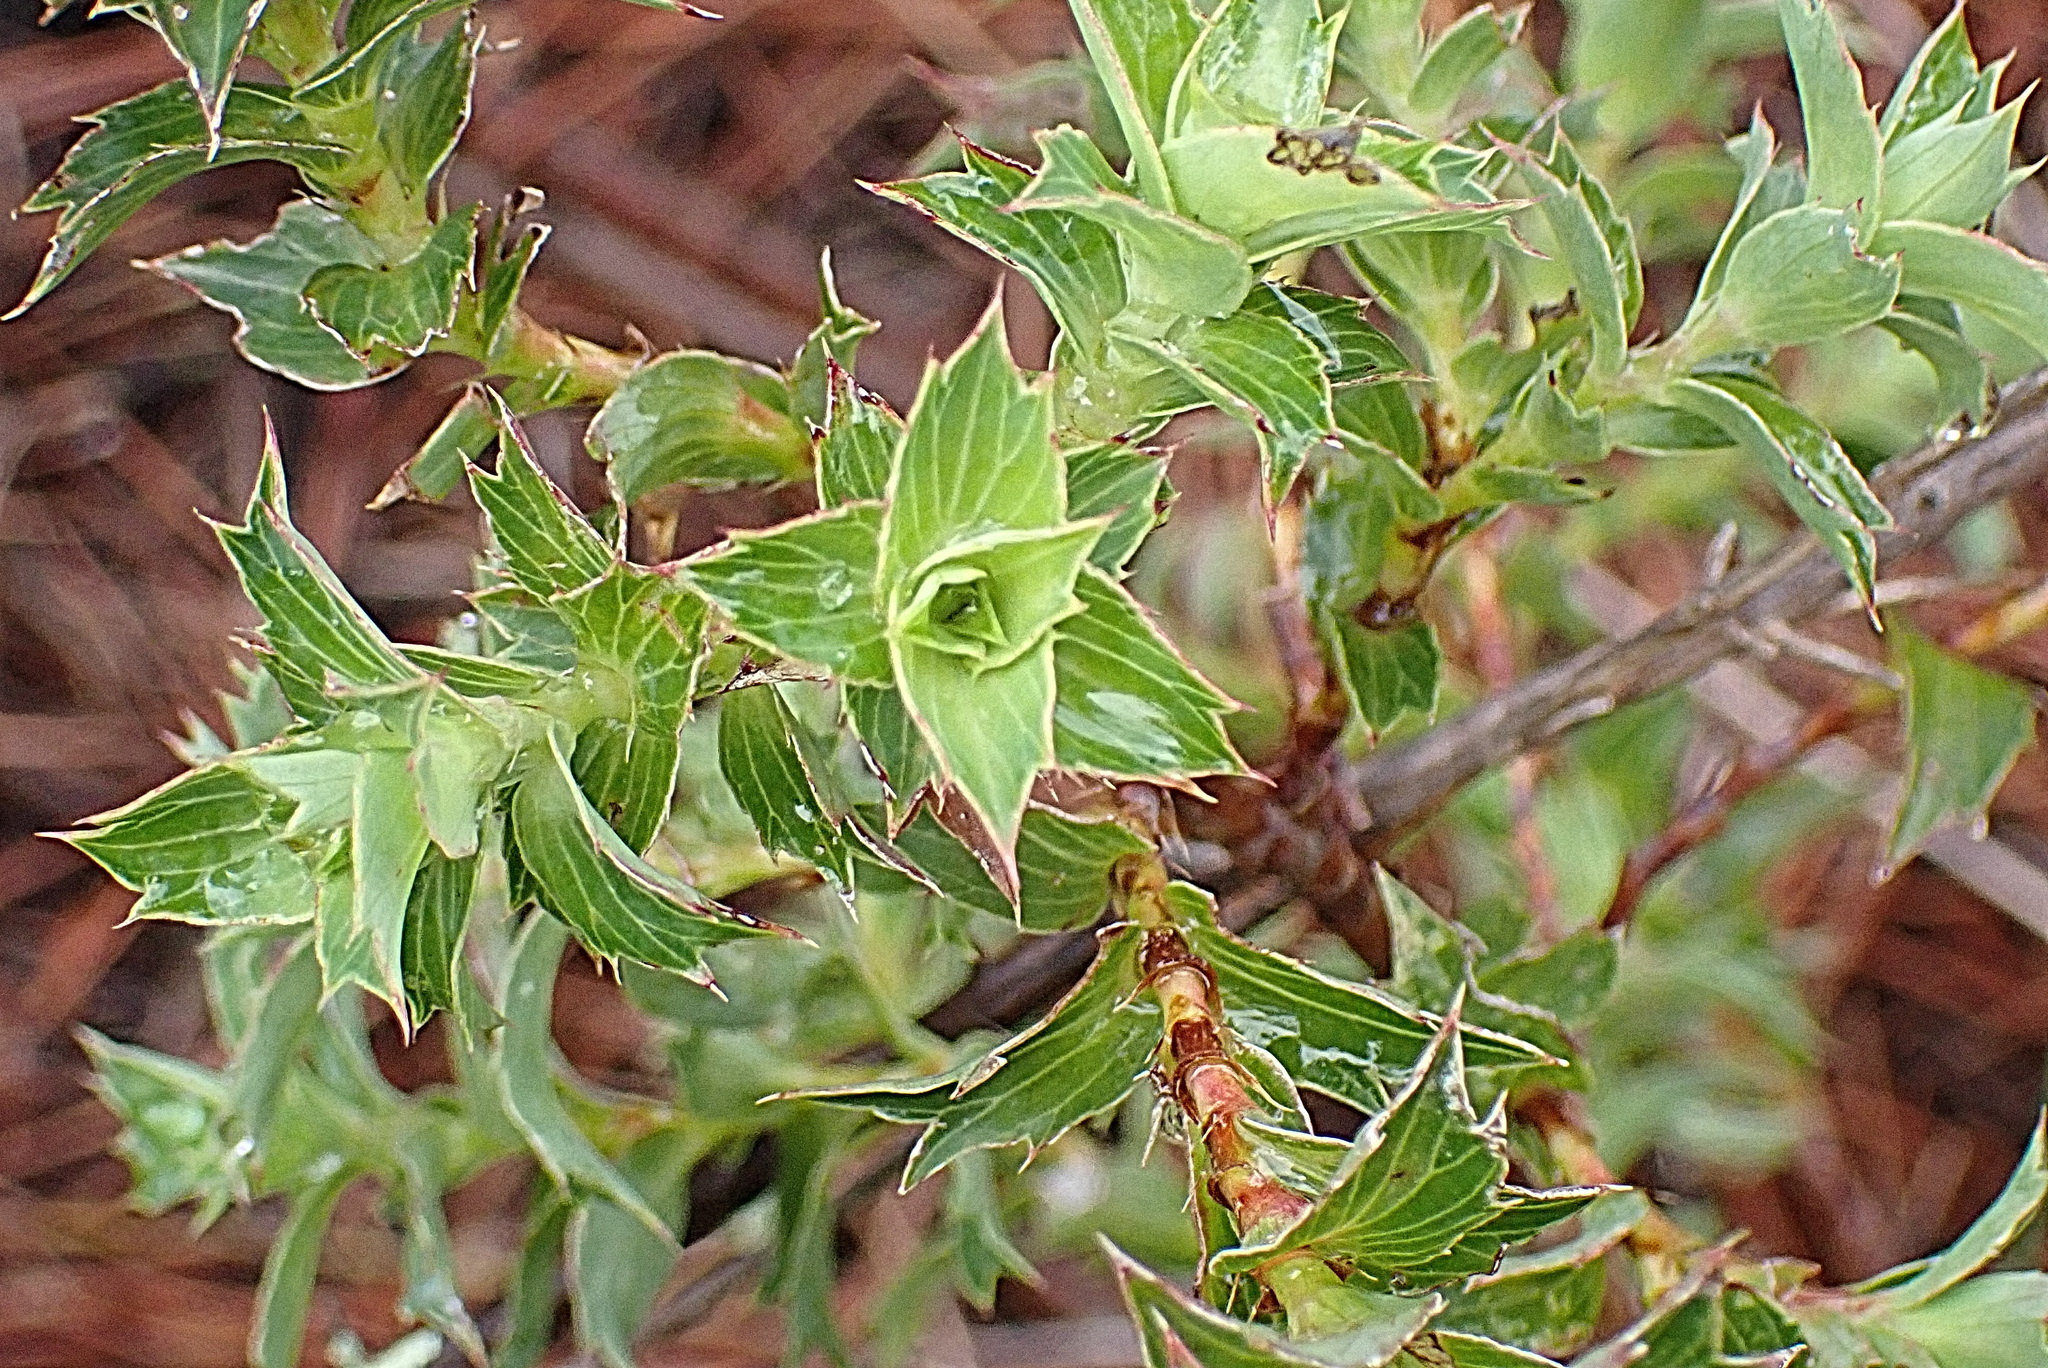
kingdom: Plantae
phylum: Tracheophyta
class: Magnoliopsida
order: Rosales
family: Rosaceae
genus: Cliffortia
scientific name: Cliffortia ilicifolia
